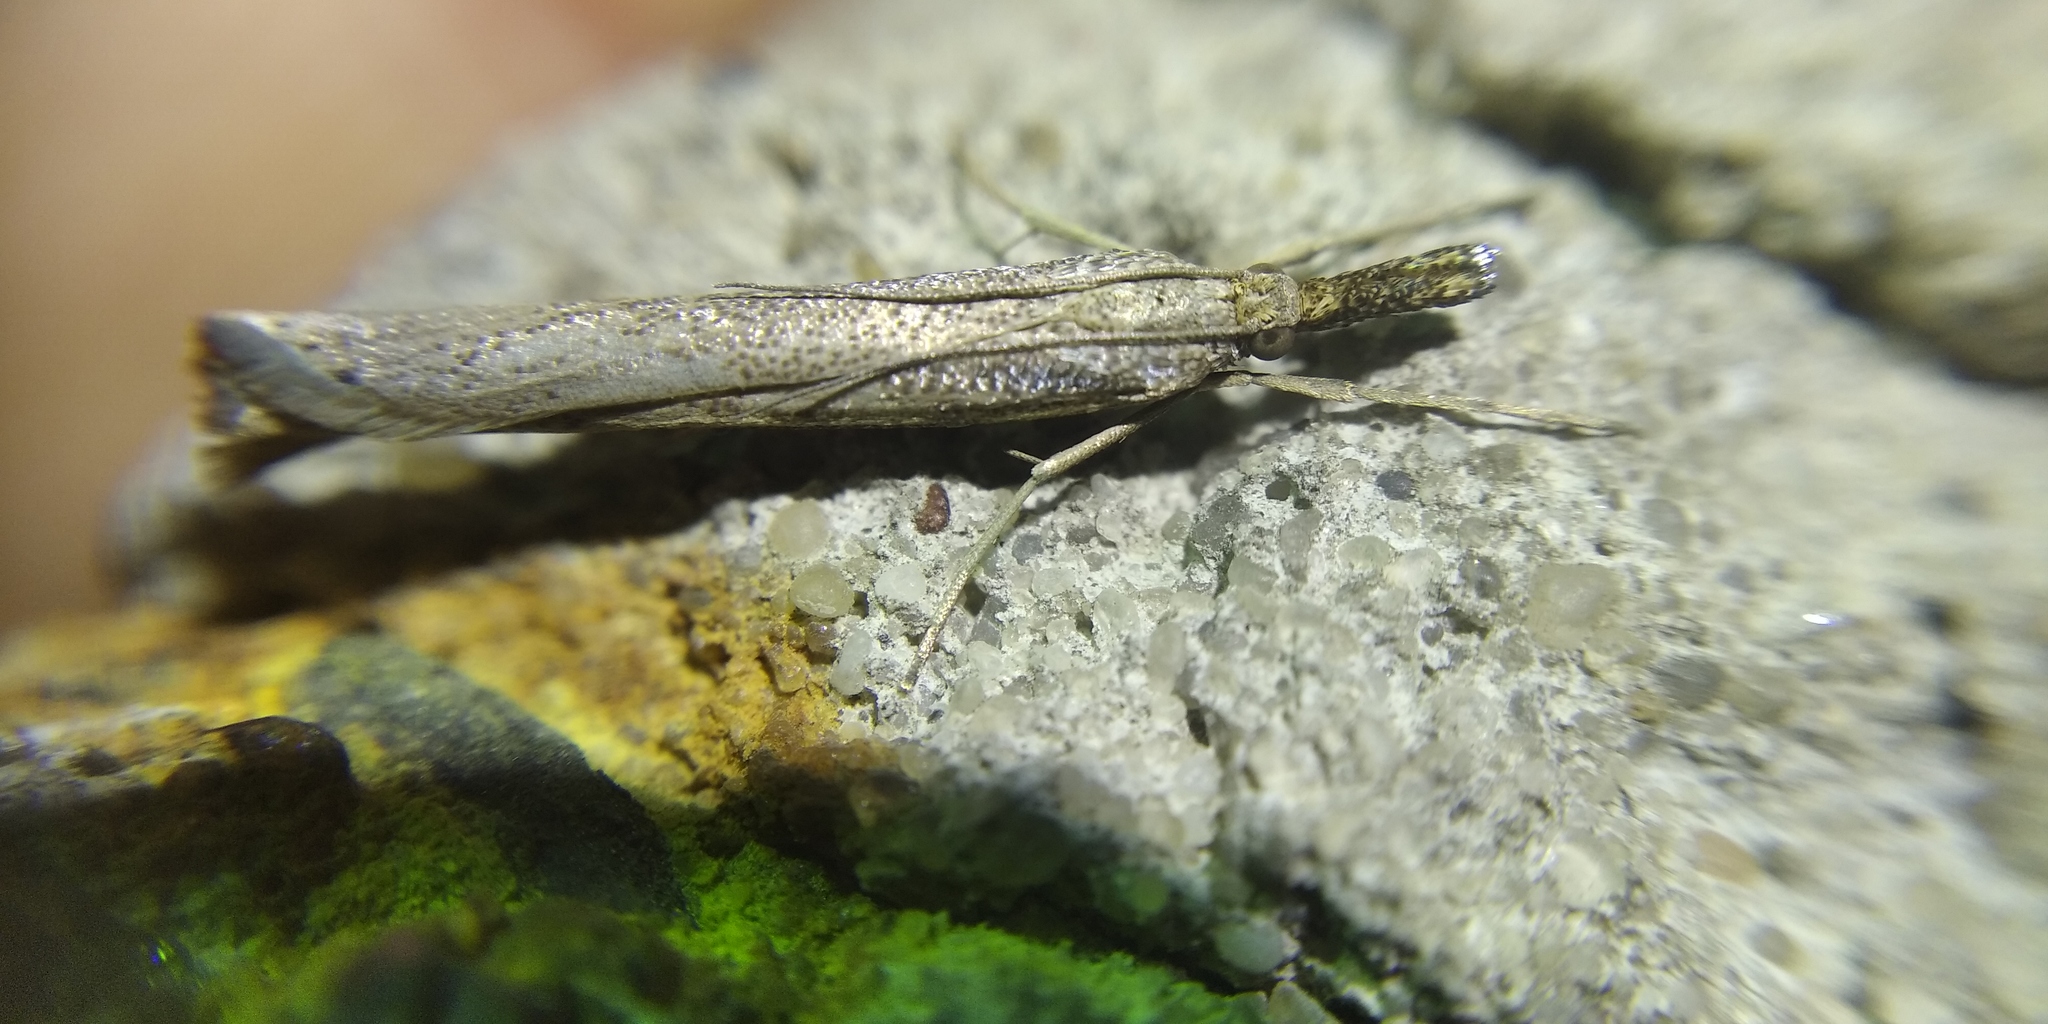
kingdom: Animalia
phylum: Arthropoda
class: Insecta
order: Lepidoptera
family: Crambidae
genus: Agriphila
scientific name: Agriphila poliellus
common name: Grey grass-veneer
